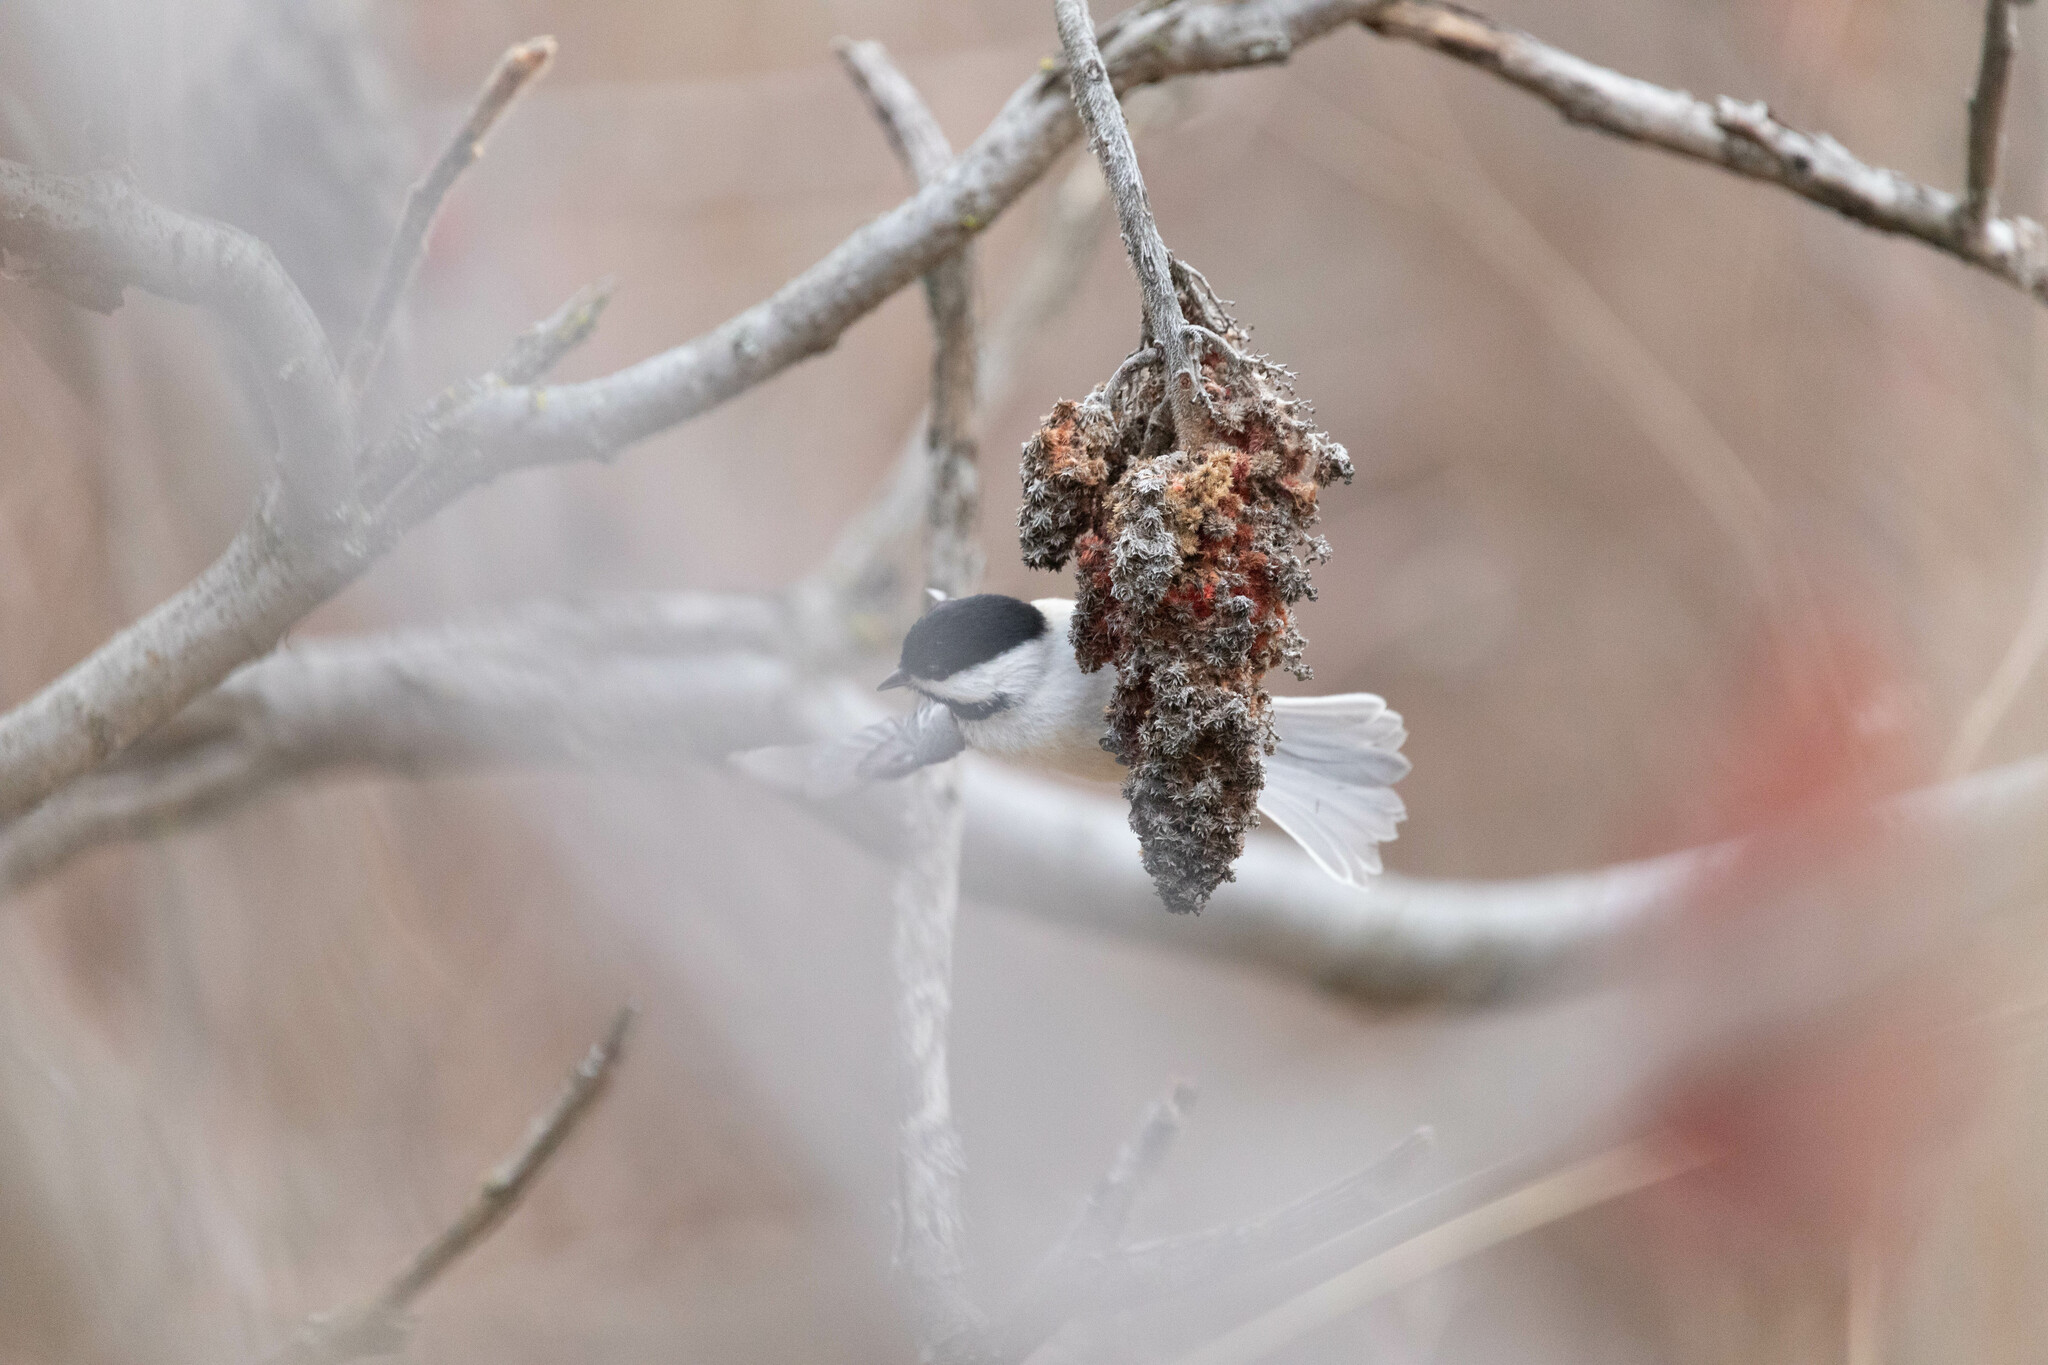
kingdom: Animalia
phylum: Chordata
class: Aves
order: Passeriformes
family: Paridae
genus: Poecile
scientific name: Poecile atricapillus
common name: Black-capped chickadee
